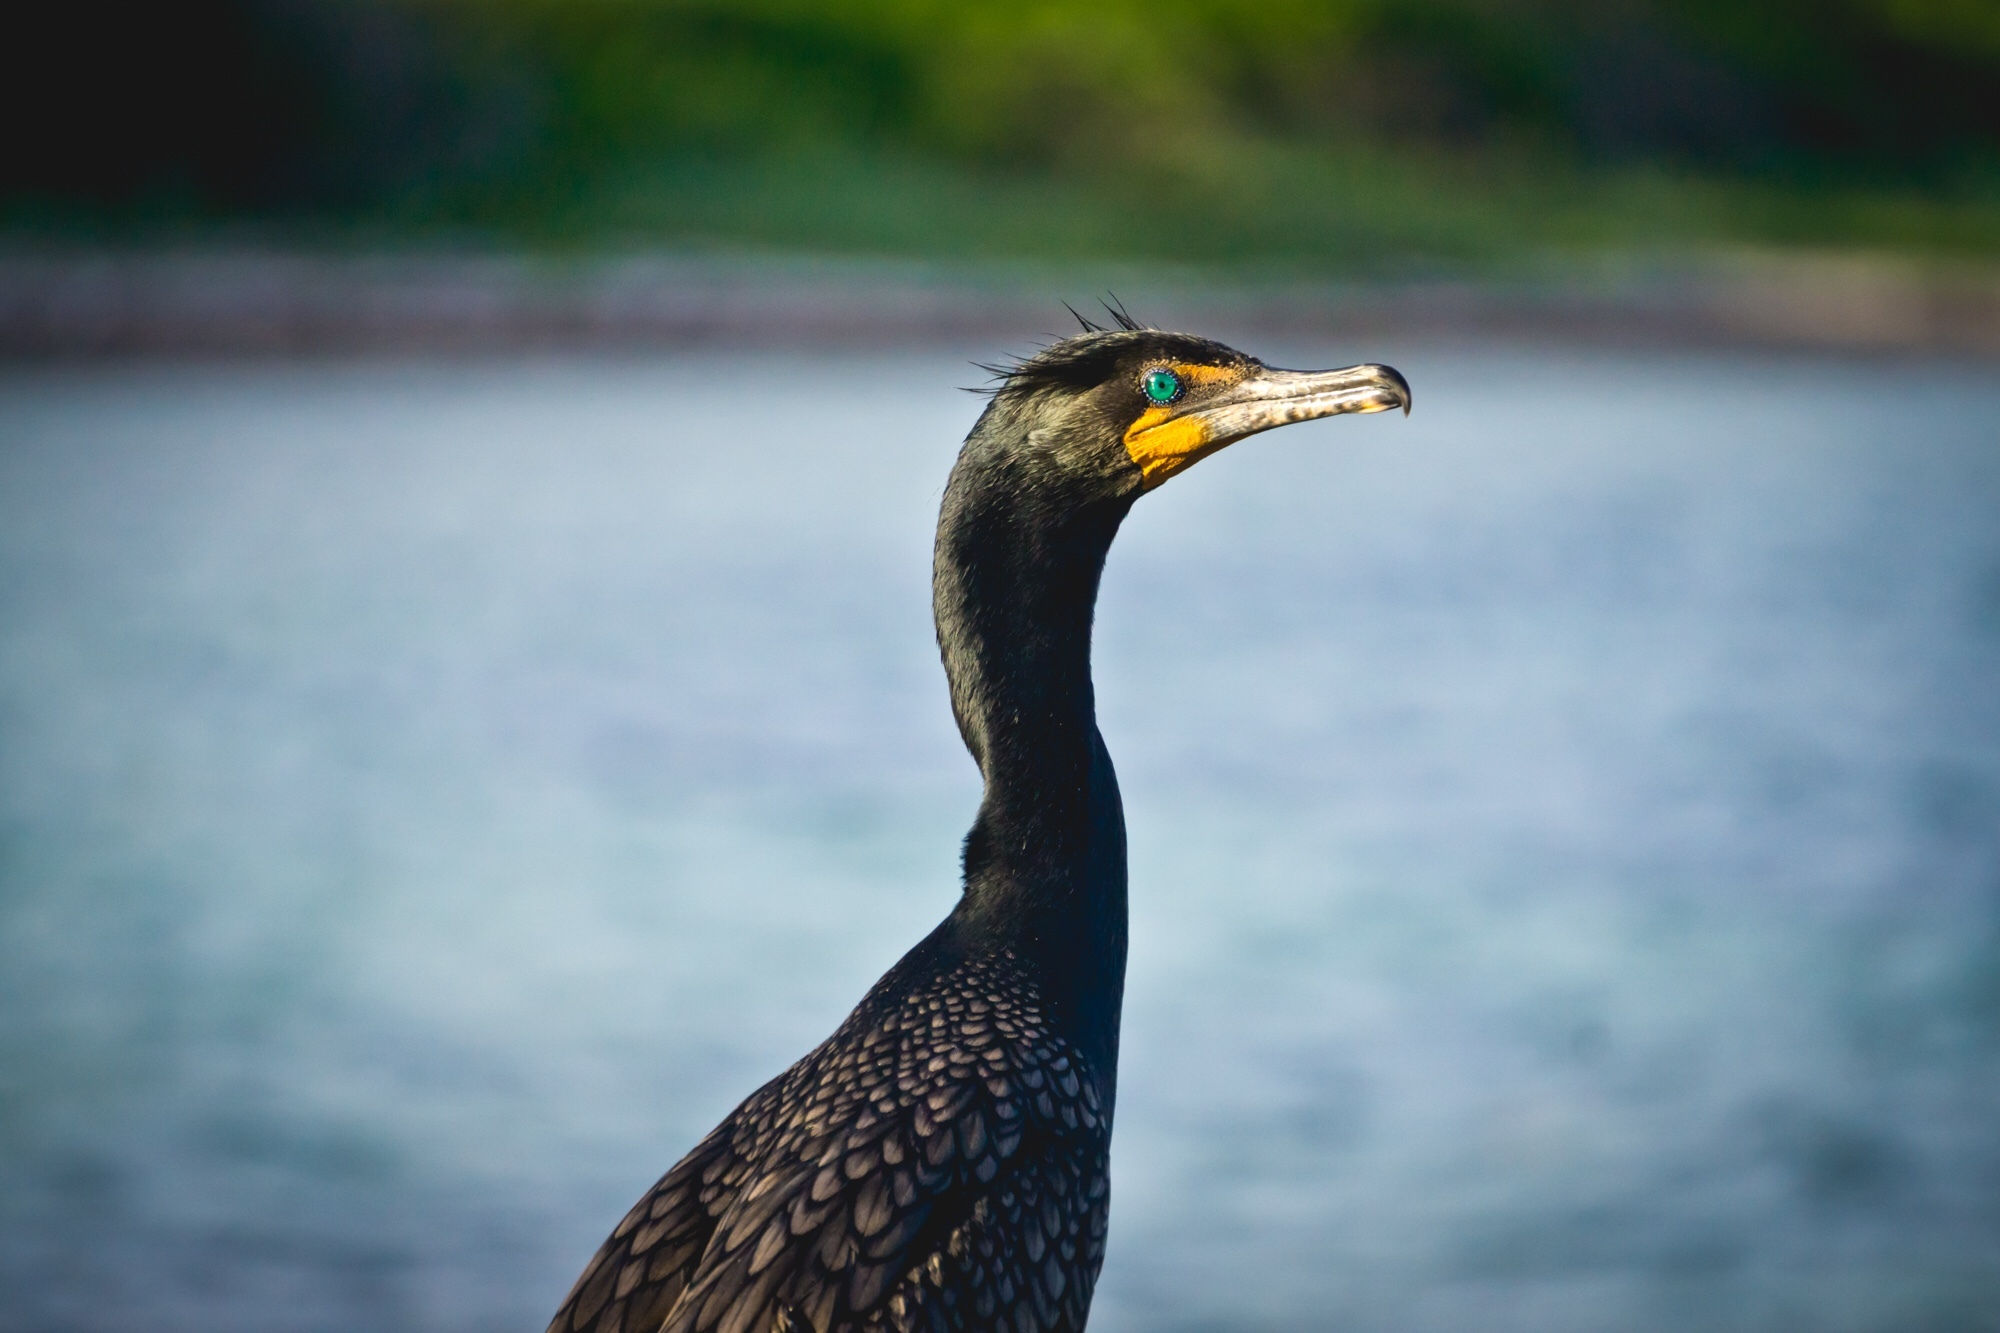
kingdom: Animalia
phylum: Chordata
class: Aves
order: Suliformes
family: Phalacrocoracidae
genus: Phalacrocorax
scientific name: Phalacrocorax auritus
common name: Double-crested cormorant
